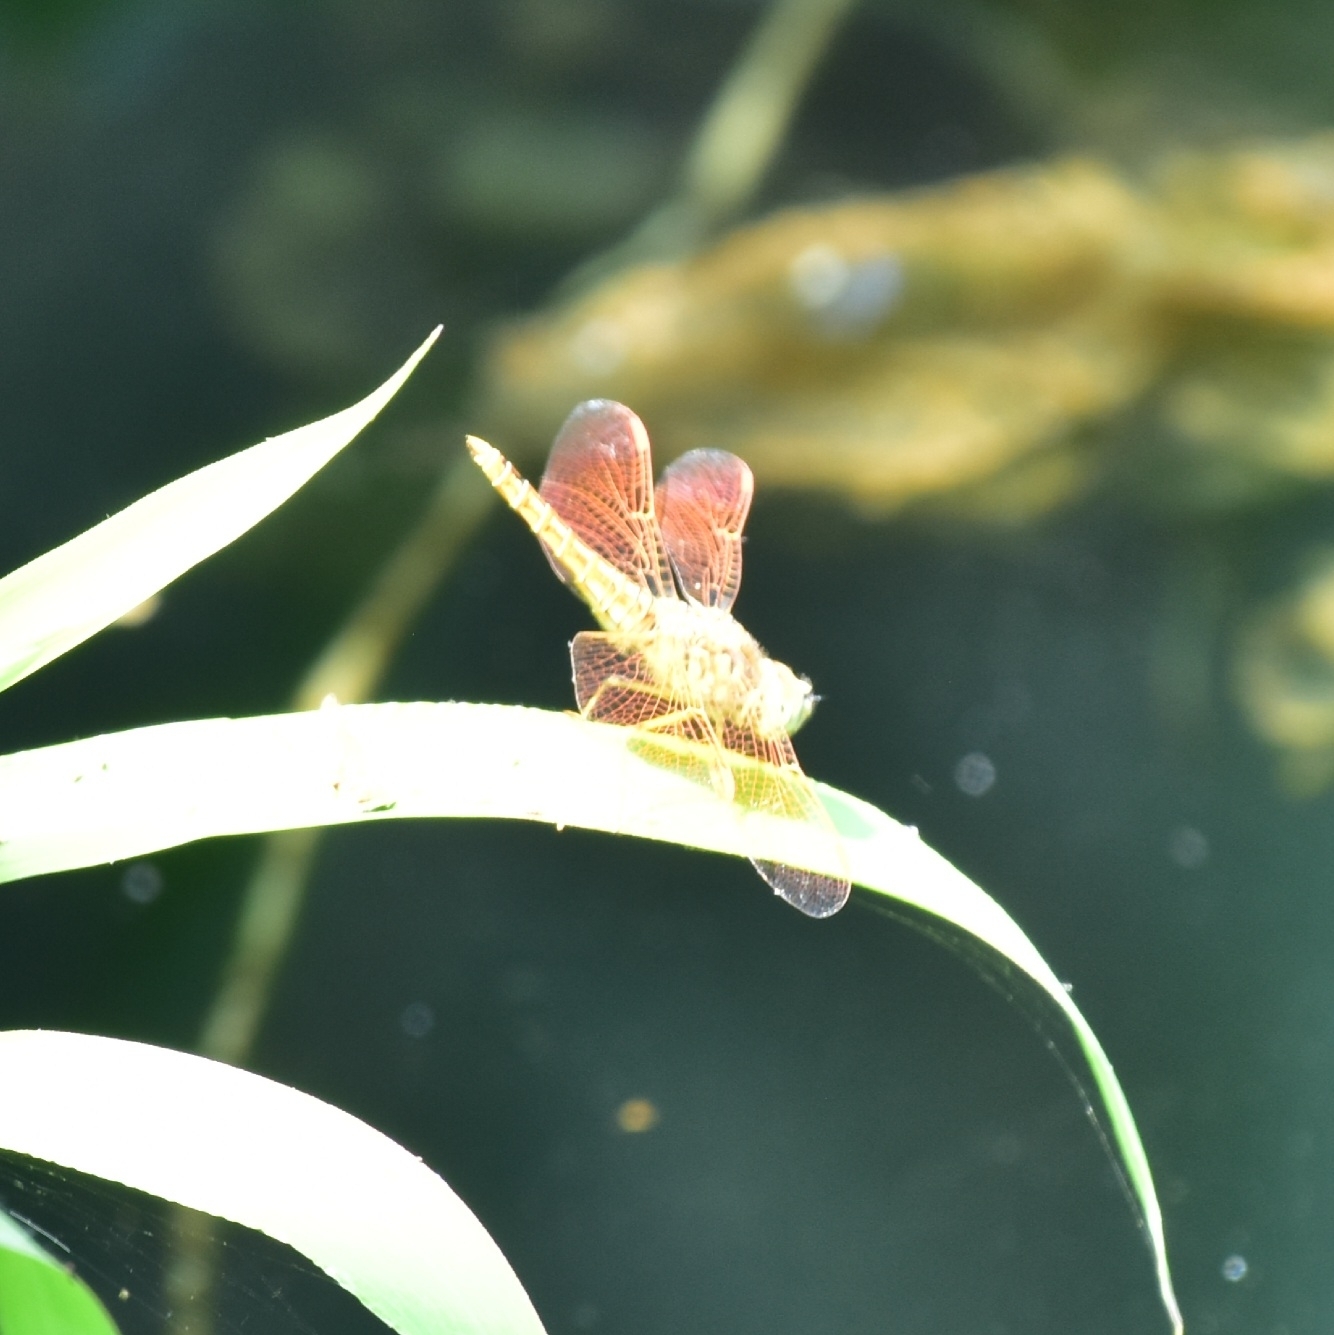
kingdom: Animalia
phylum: Arthropoda
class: Insecta
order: Odonata
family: Libellulidae
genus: Brachythemis
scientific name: Brachythemis contaminata
